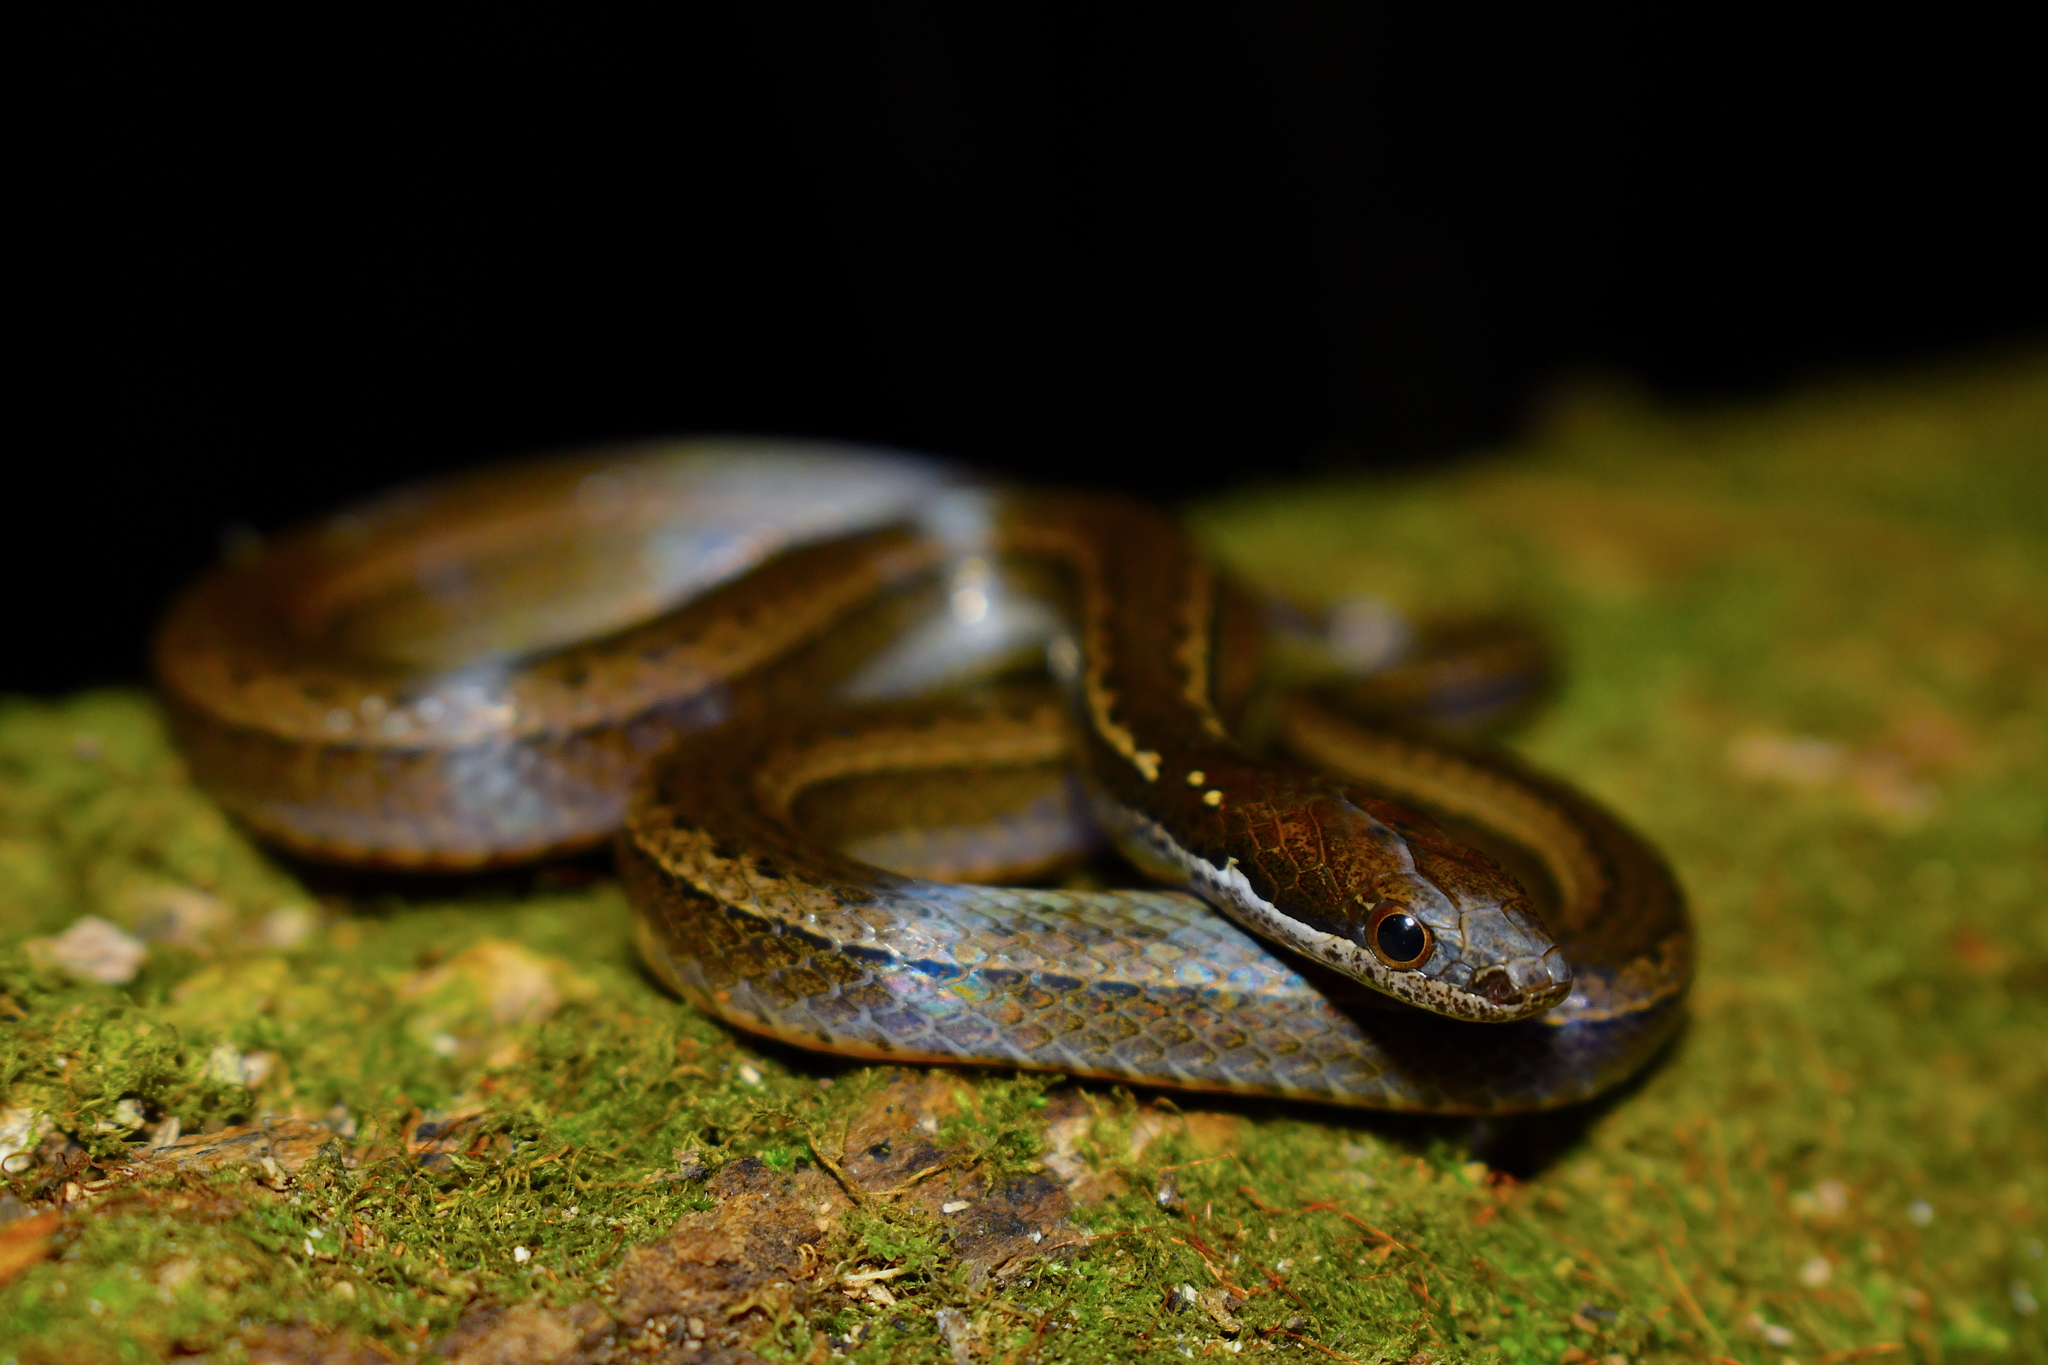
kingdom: Animalia
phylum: Chordata
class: Squamata
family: Colubridae
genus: Coniophanes
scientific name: Coniophanes fissidens
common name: Yellowbelly snake
